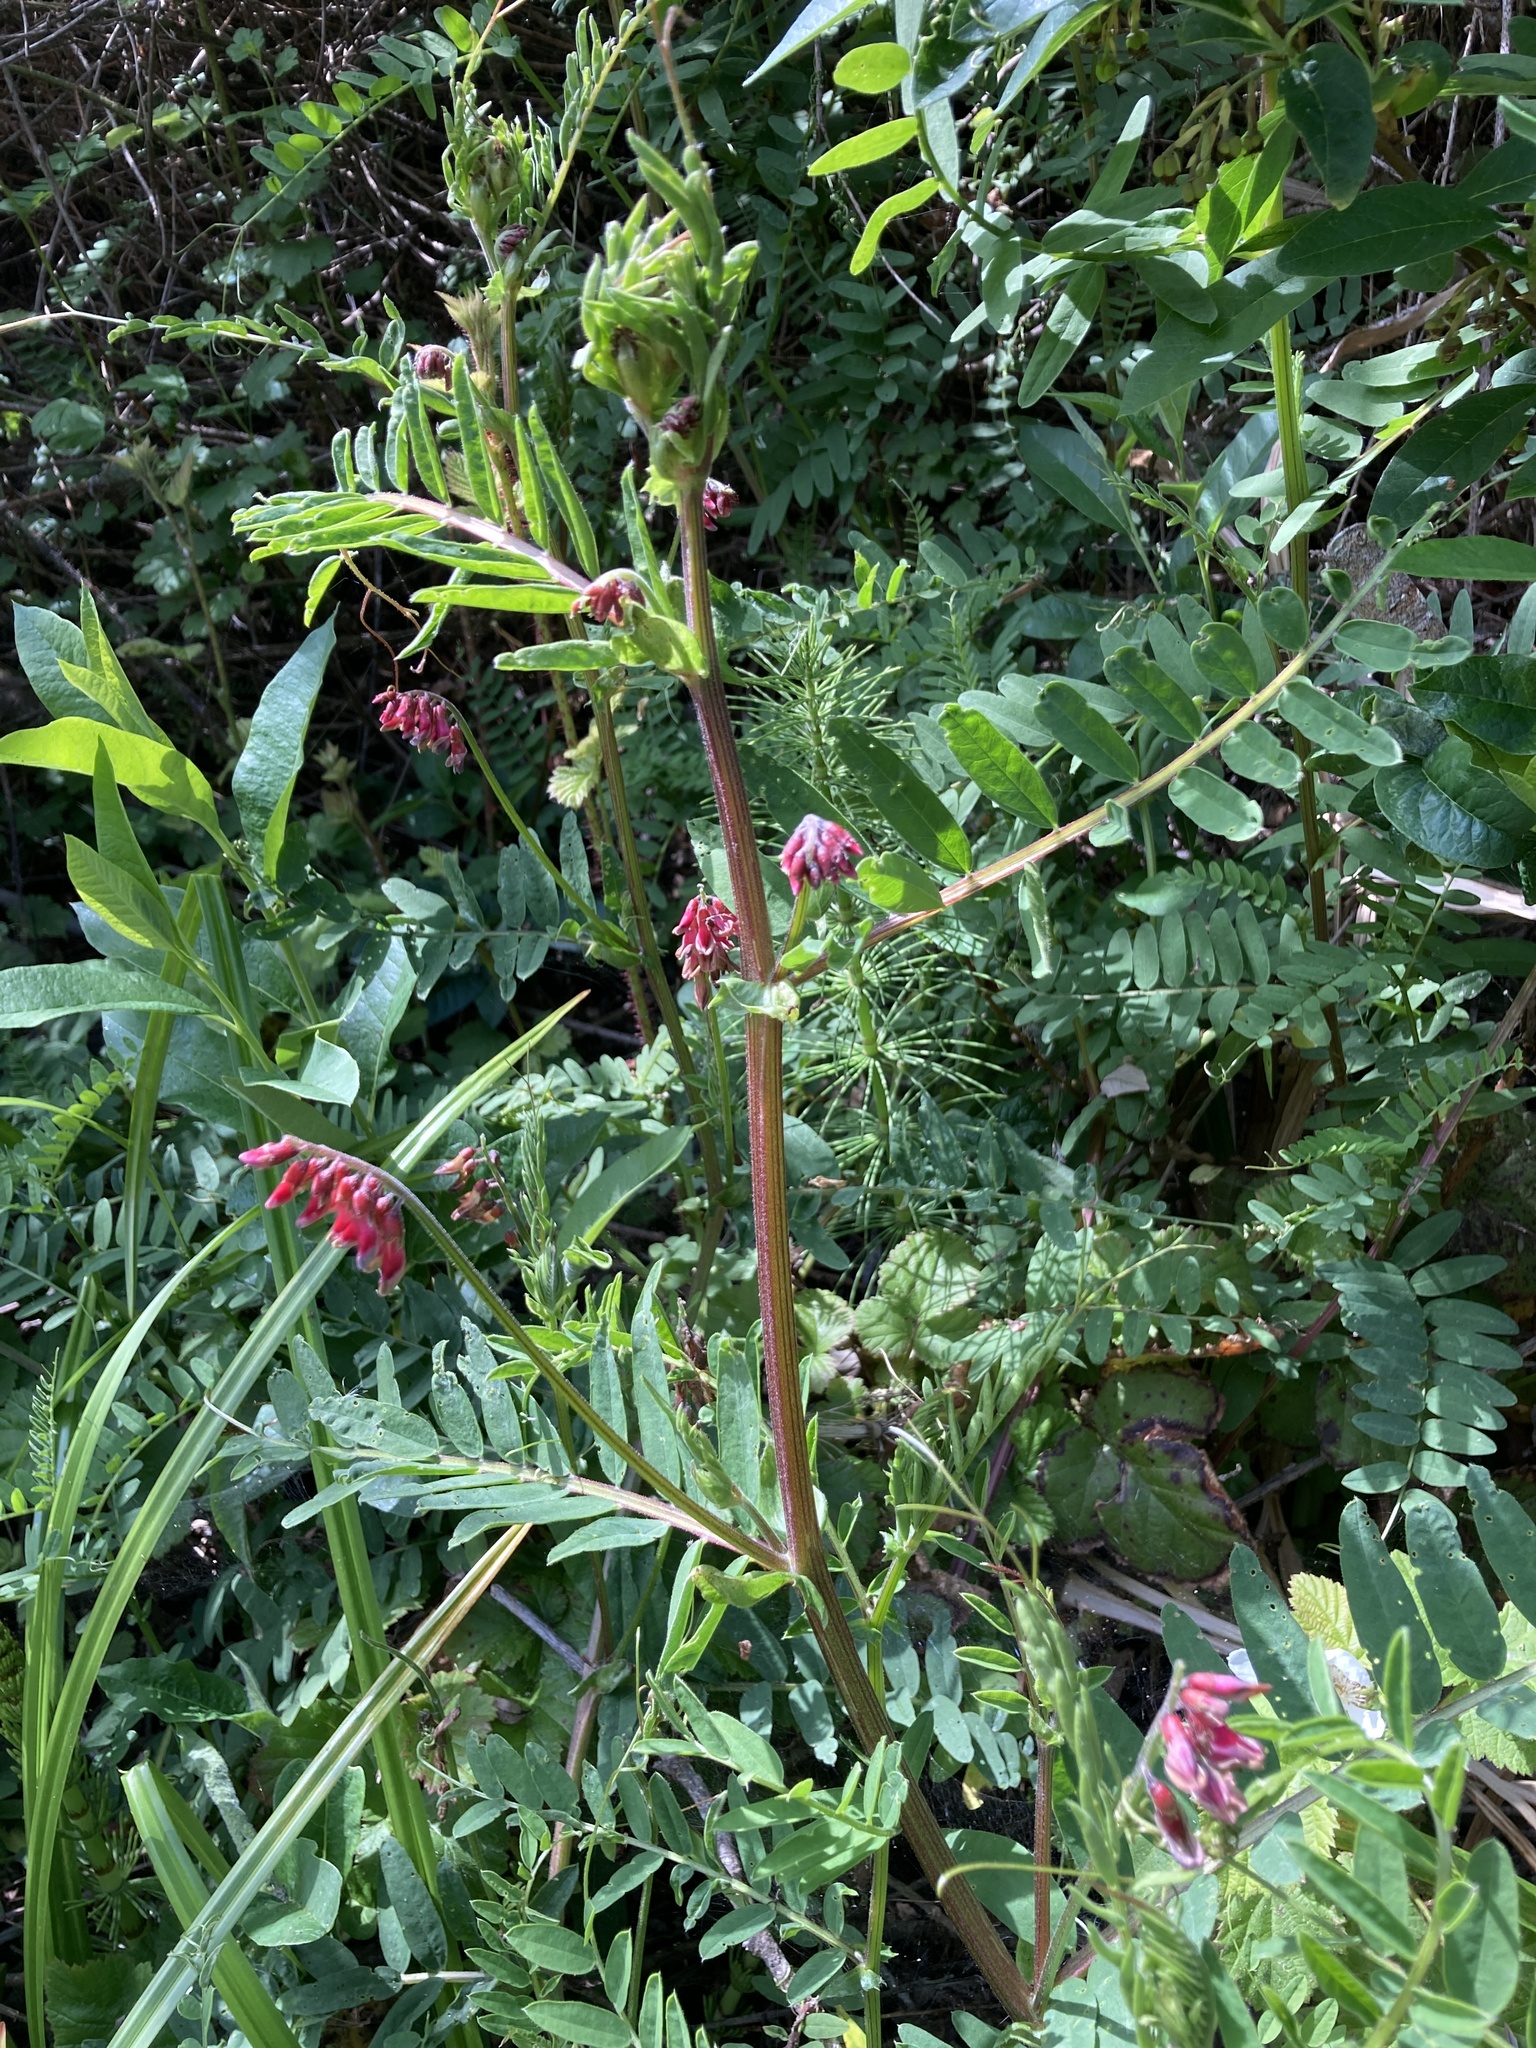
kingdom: Plantae
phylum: Tracheophyta
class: Magnoliopsida
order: Fabales
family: Fabaceae
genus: Vicia
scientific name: Vicia
